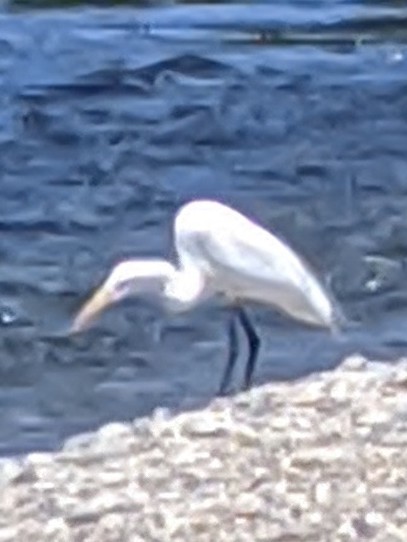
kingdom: Animalia
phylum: Chordata
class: Aves
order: Pelecaniformes
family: Ardeidae
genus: Ardea
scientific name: Ardea alba
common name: Great egret
